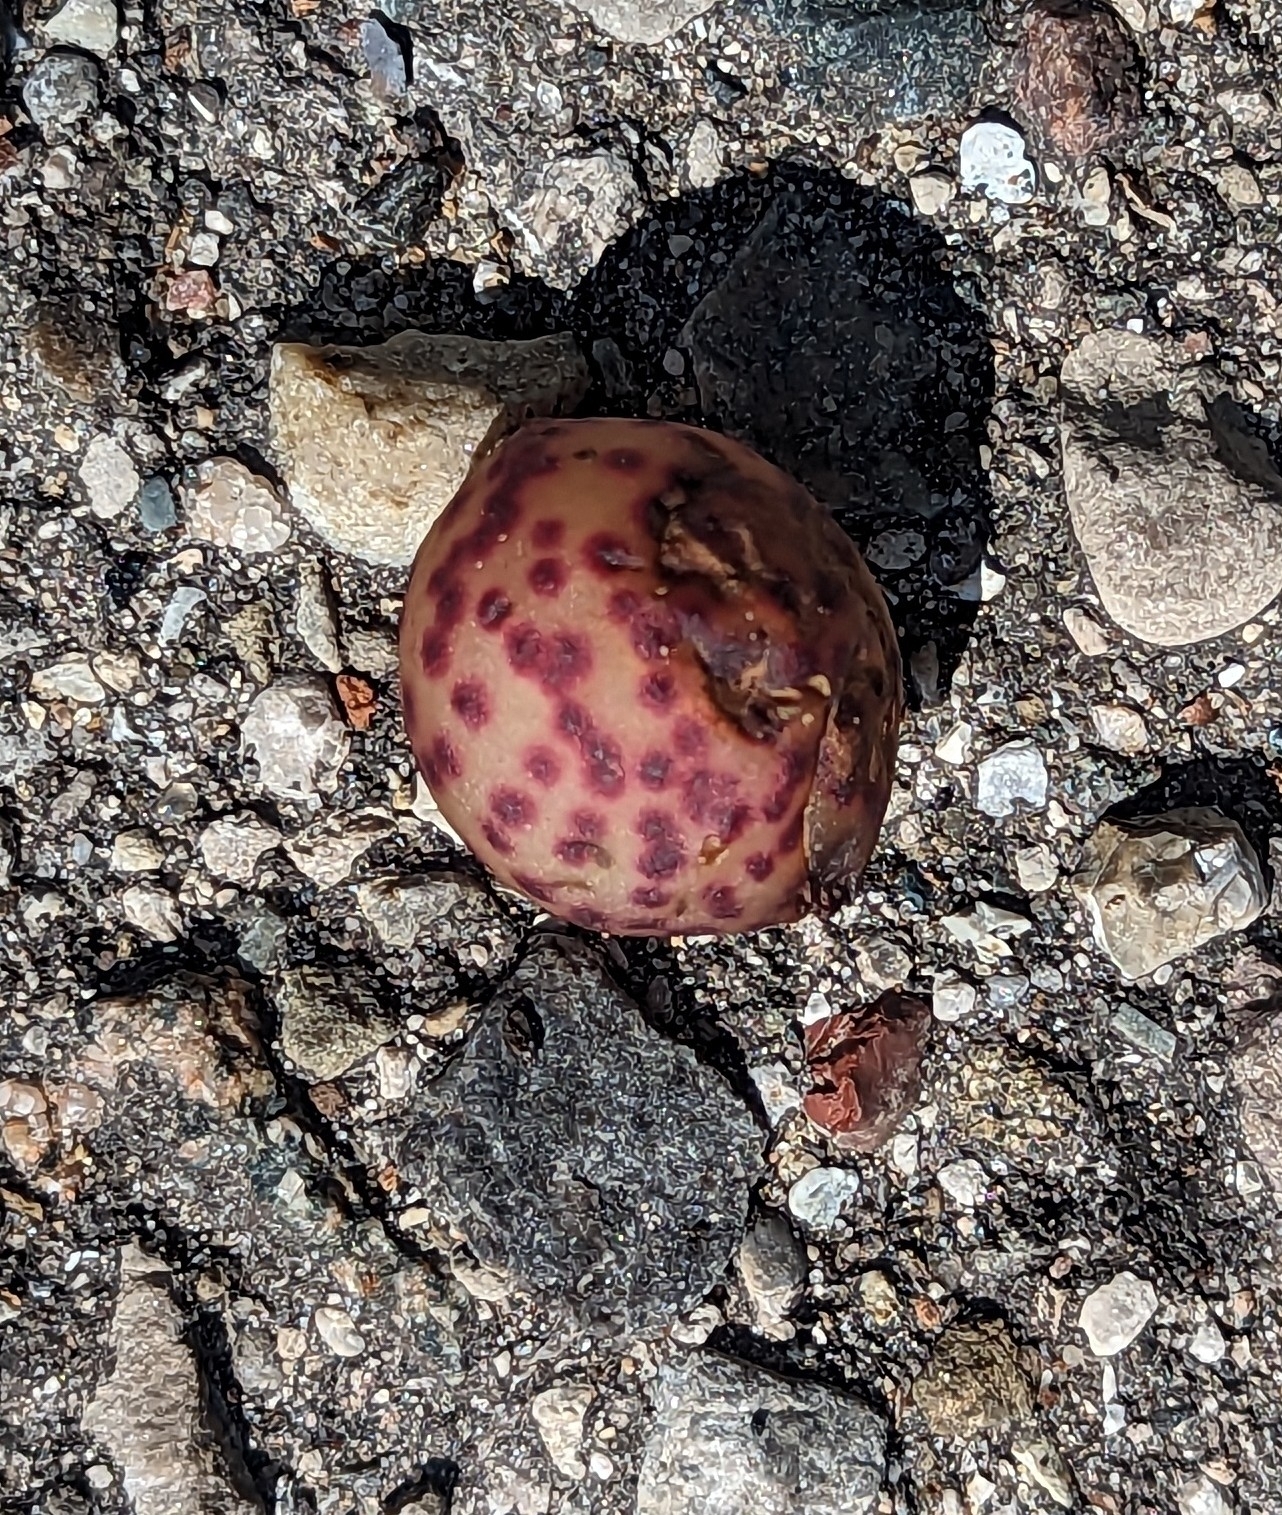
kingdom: Animalia
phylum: Arthropoda
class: Insecta
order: Hymenoptera
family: Cynipidae
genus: Amphibolips
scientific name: Amphibolips
